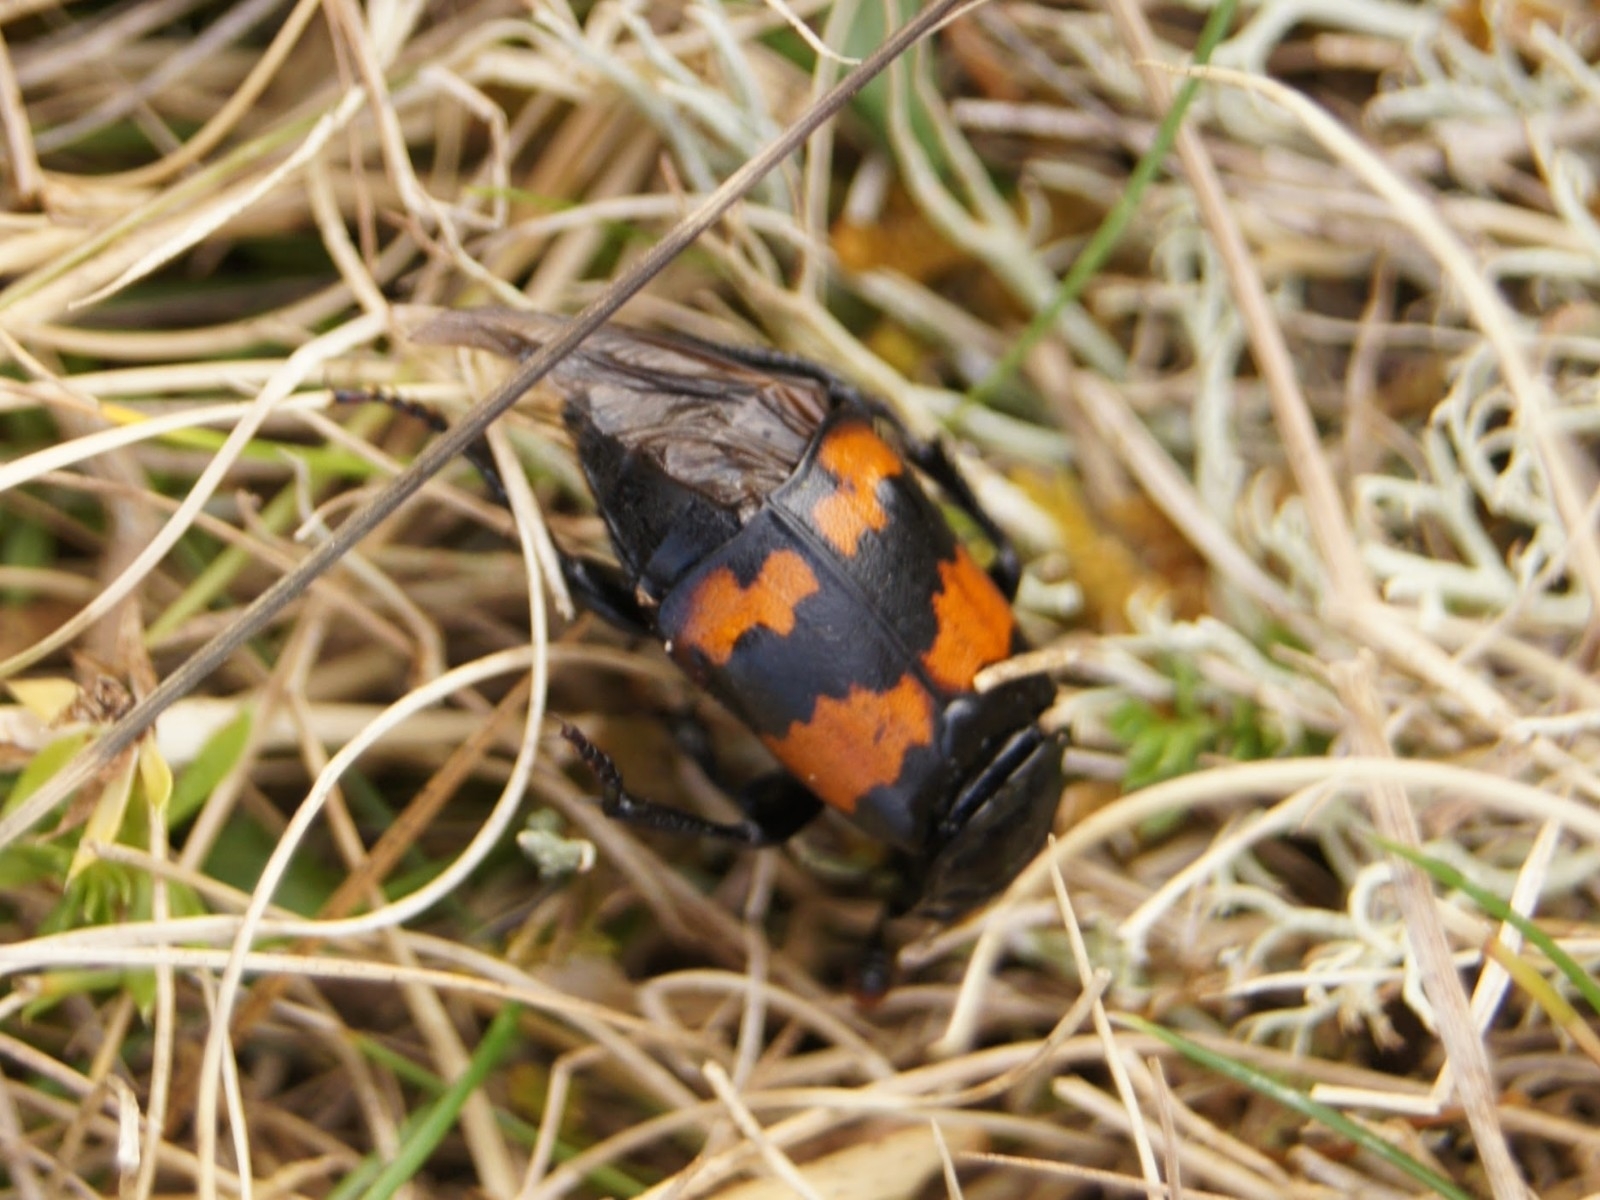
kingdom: Animalia
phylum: Arthropoda
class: Insecta
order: Coleoptera
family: Staphylinidae
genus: Nicrophorus
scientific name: Nicrophorus investigator
